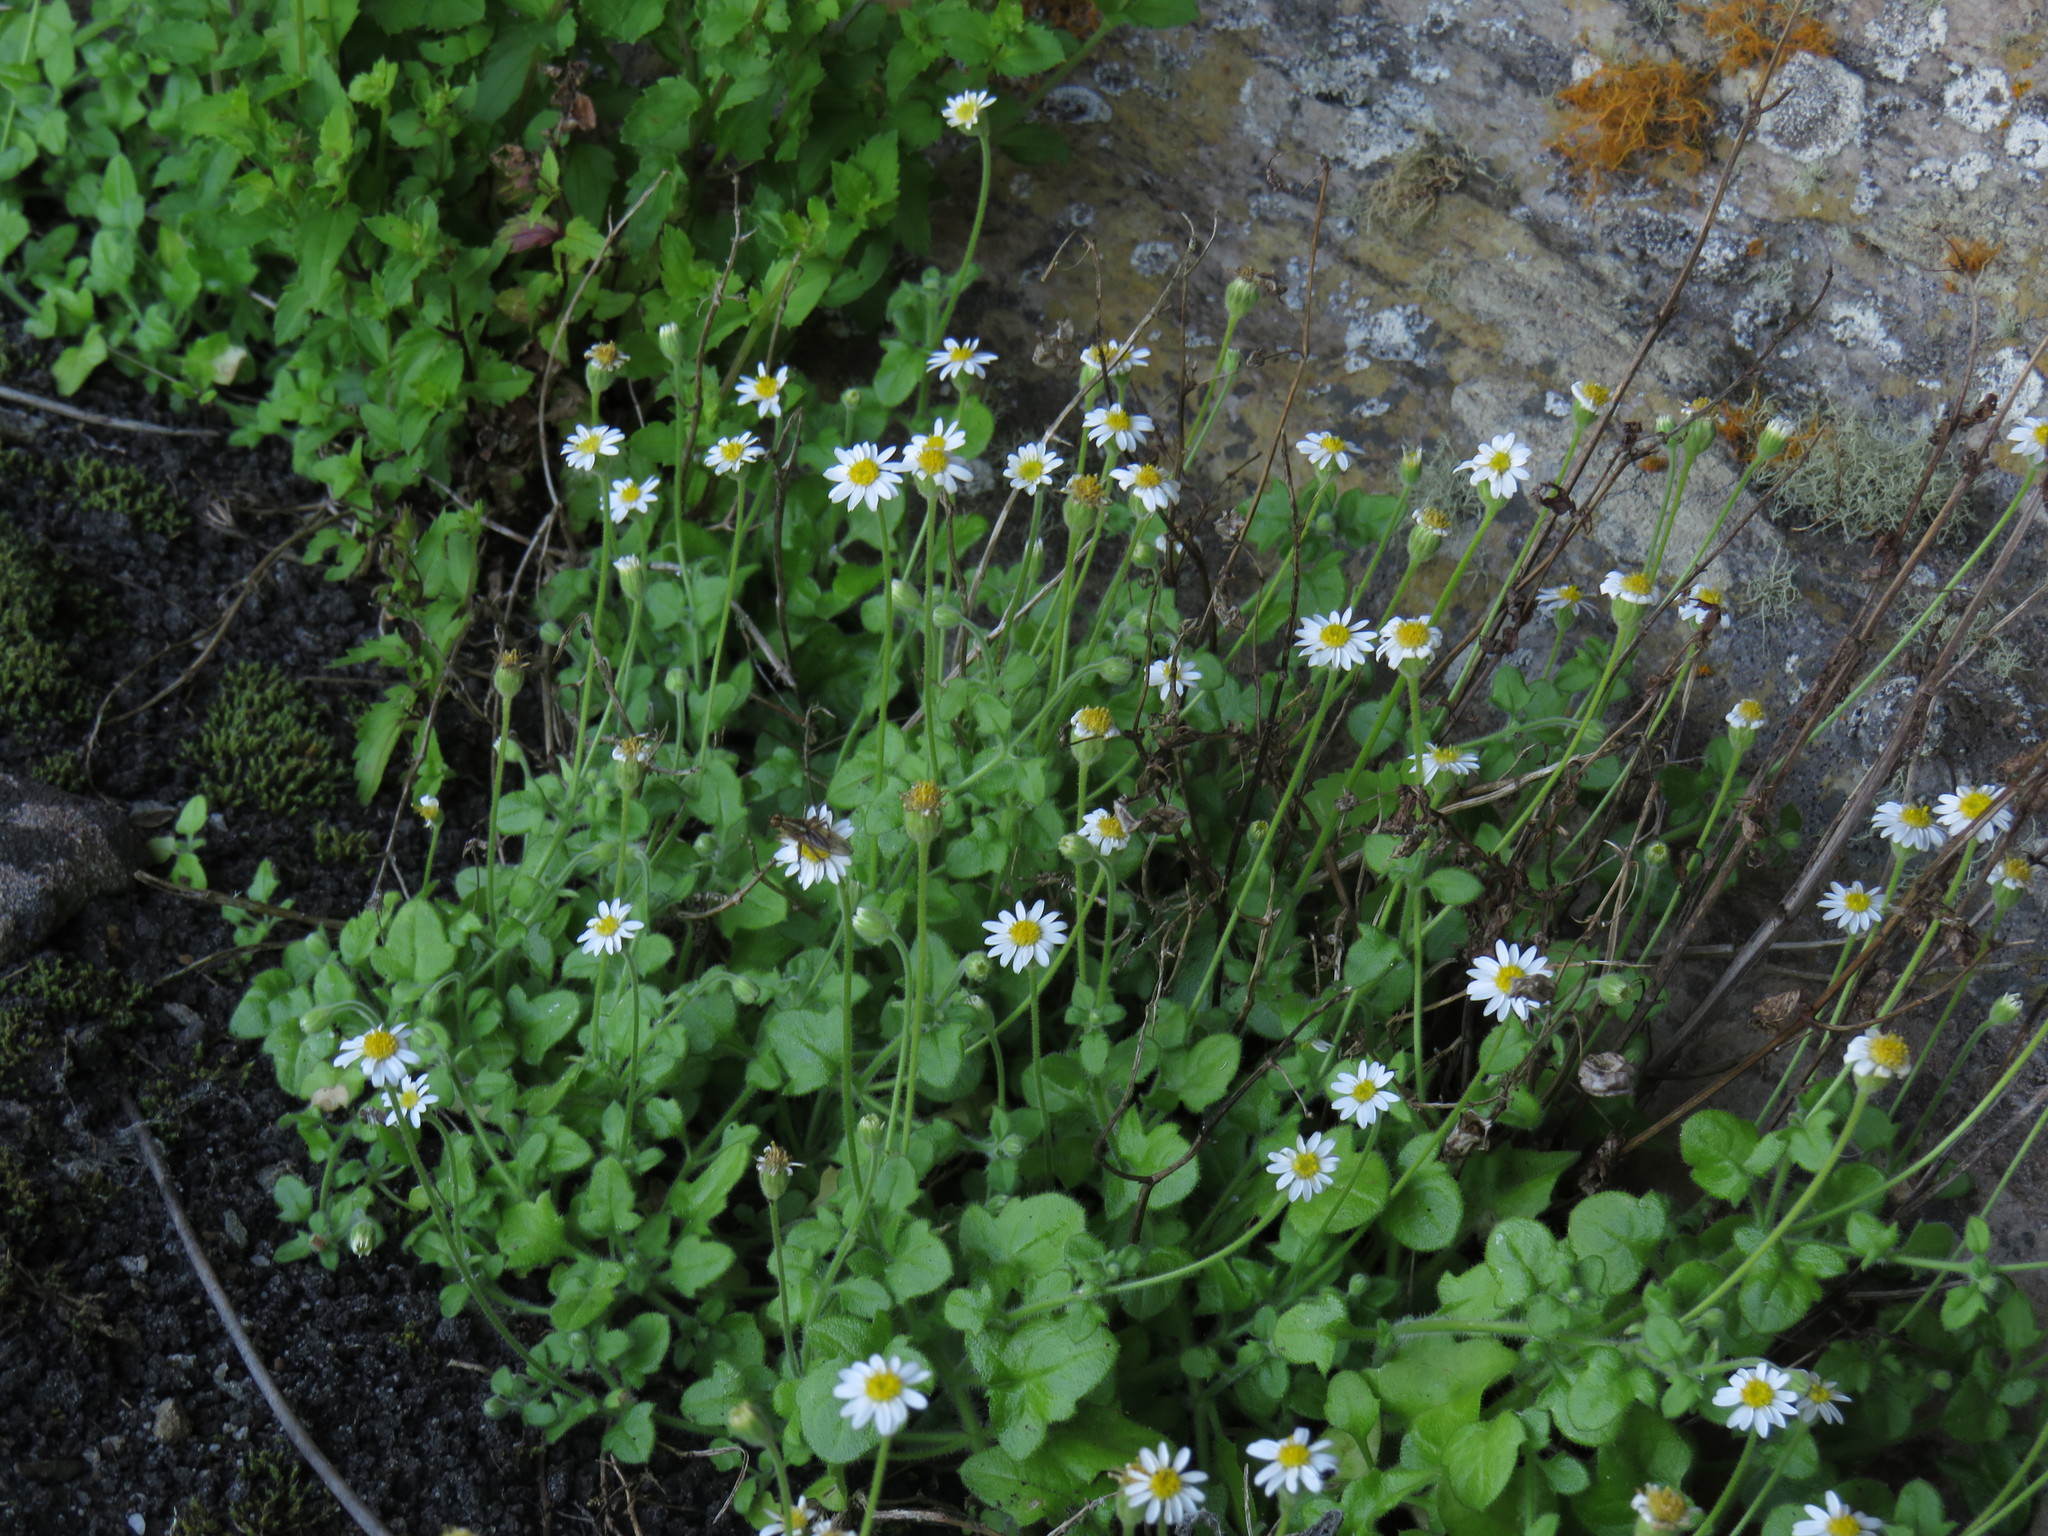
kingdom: Plantae
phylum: Tracheophyta
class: Magnoliopsida
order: Asterales
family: Asteraceae
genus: Felicia
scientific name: Felicia cymbalariae
